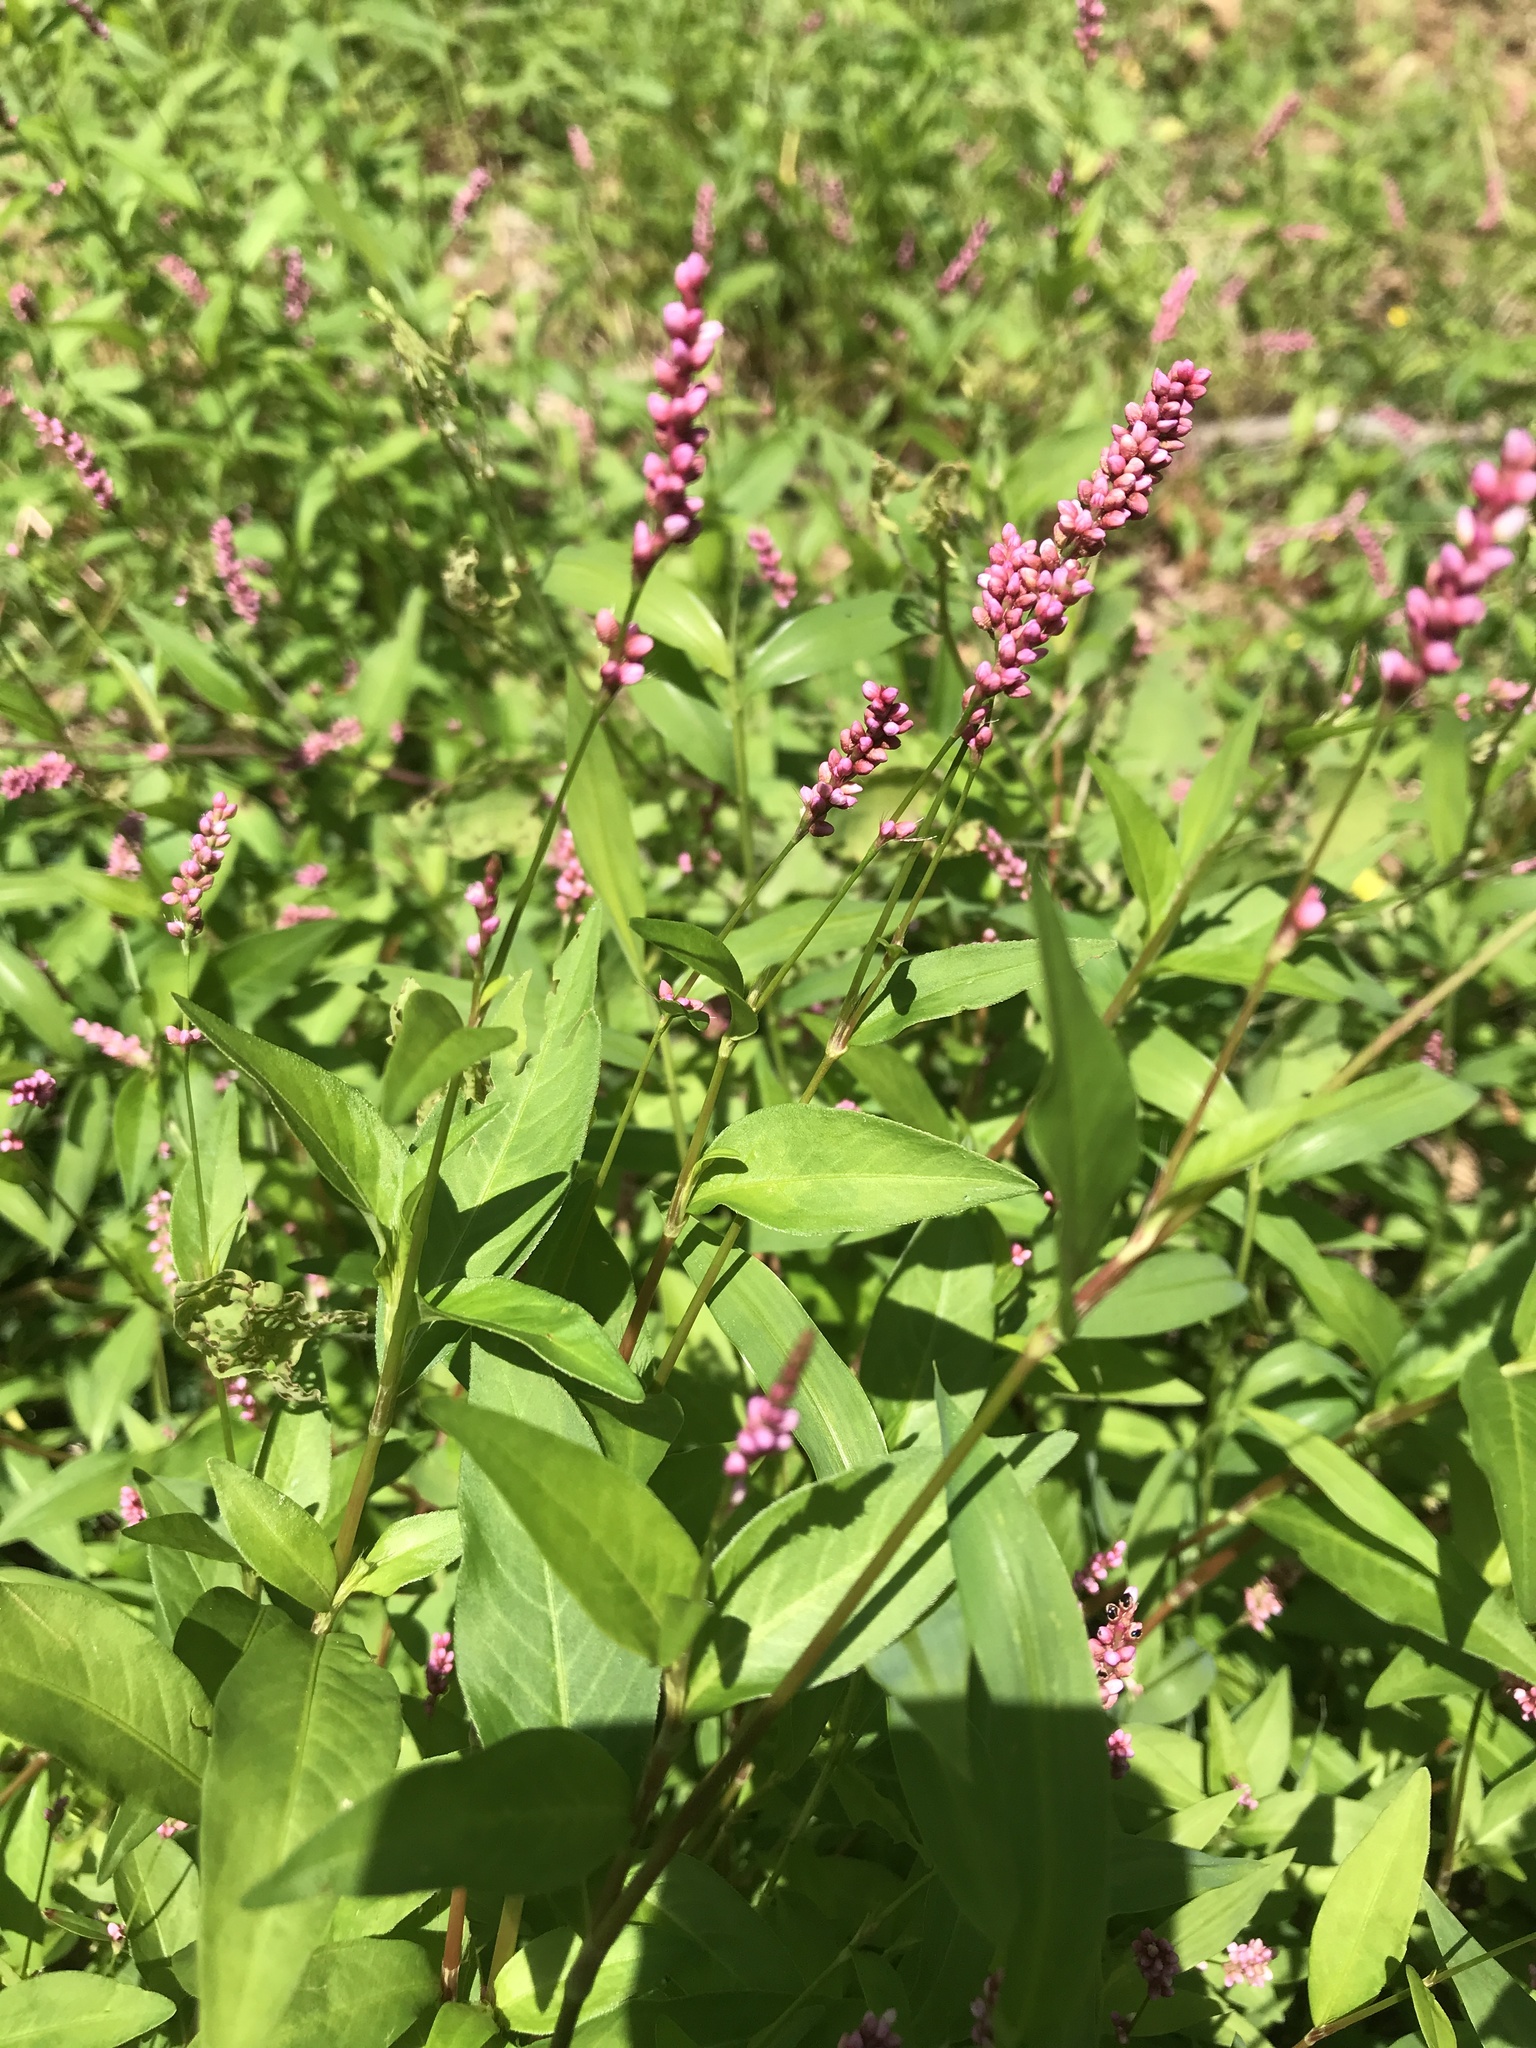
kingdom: Plantae
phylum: Tracheophyta
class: Magnoliopsida
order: Caryophyllales
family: Polygonaceae
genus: Persicaria
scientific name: Persicaria longiseta
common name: Bristly lady's-thumb
